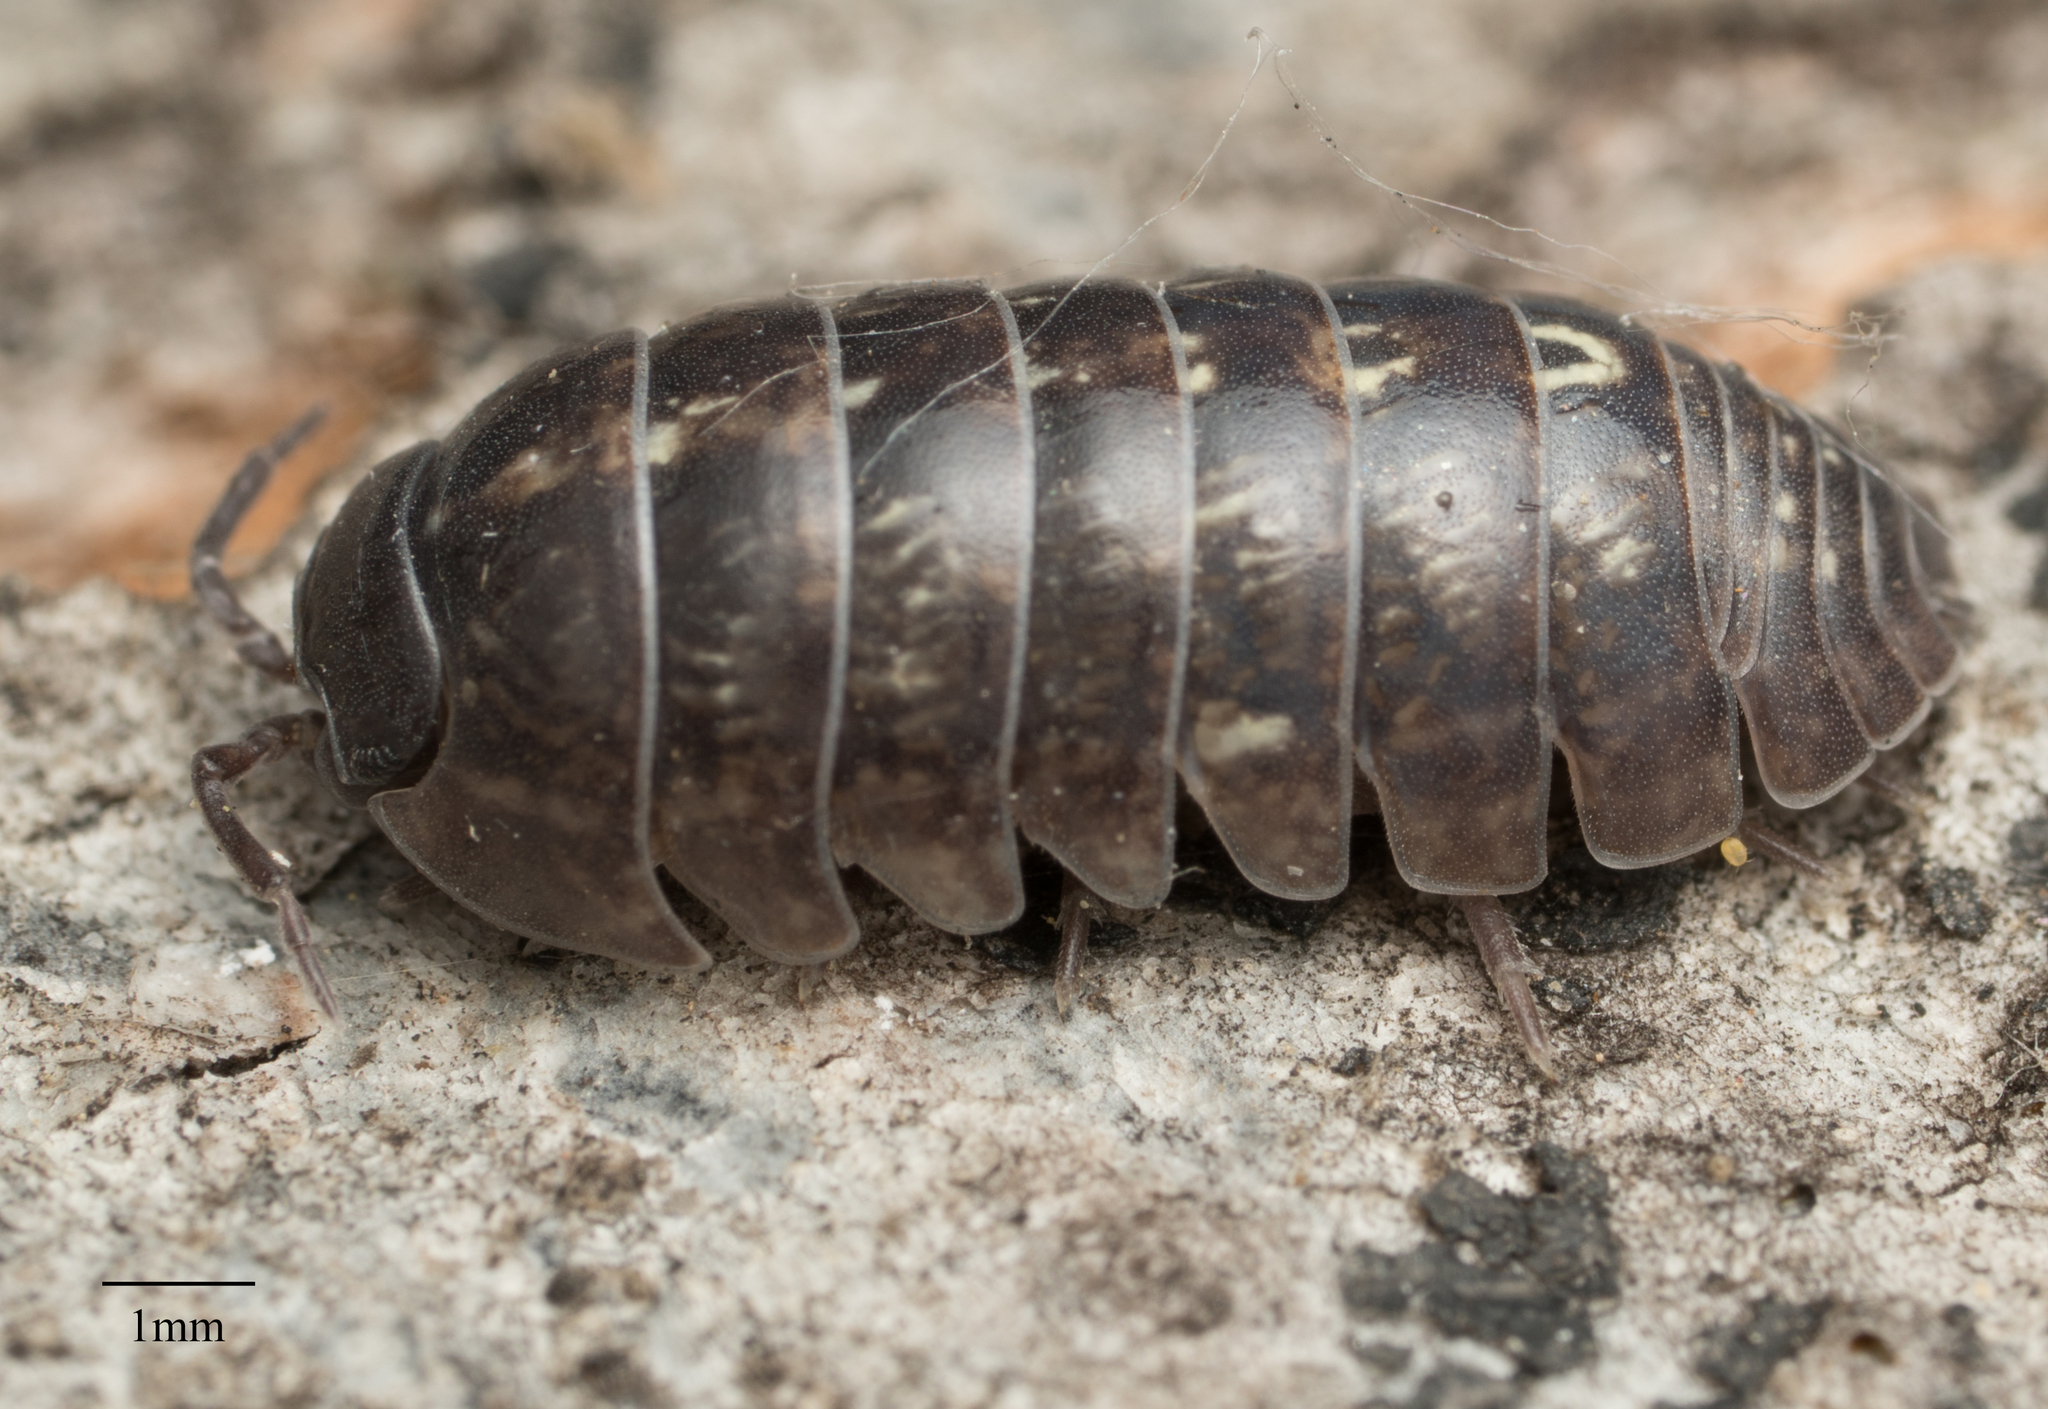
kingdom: Animalia
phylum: Arthropoda
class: Malacostraca
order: Isopoda
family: Armadillidiidae
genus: Armadillidium
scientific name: Armadillidium vulgare
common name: Common pill woodlouse
